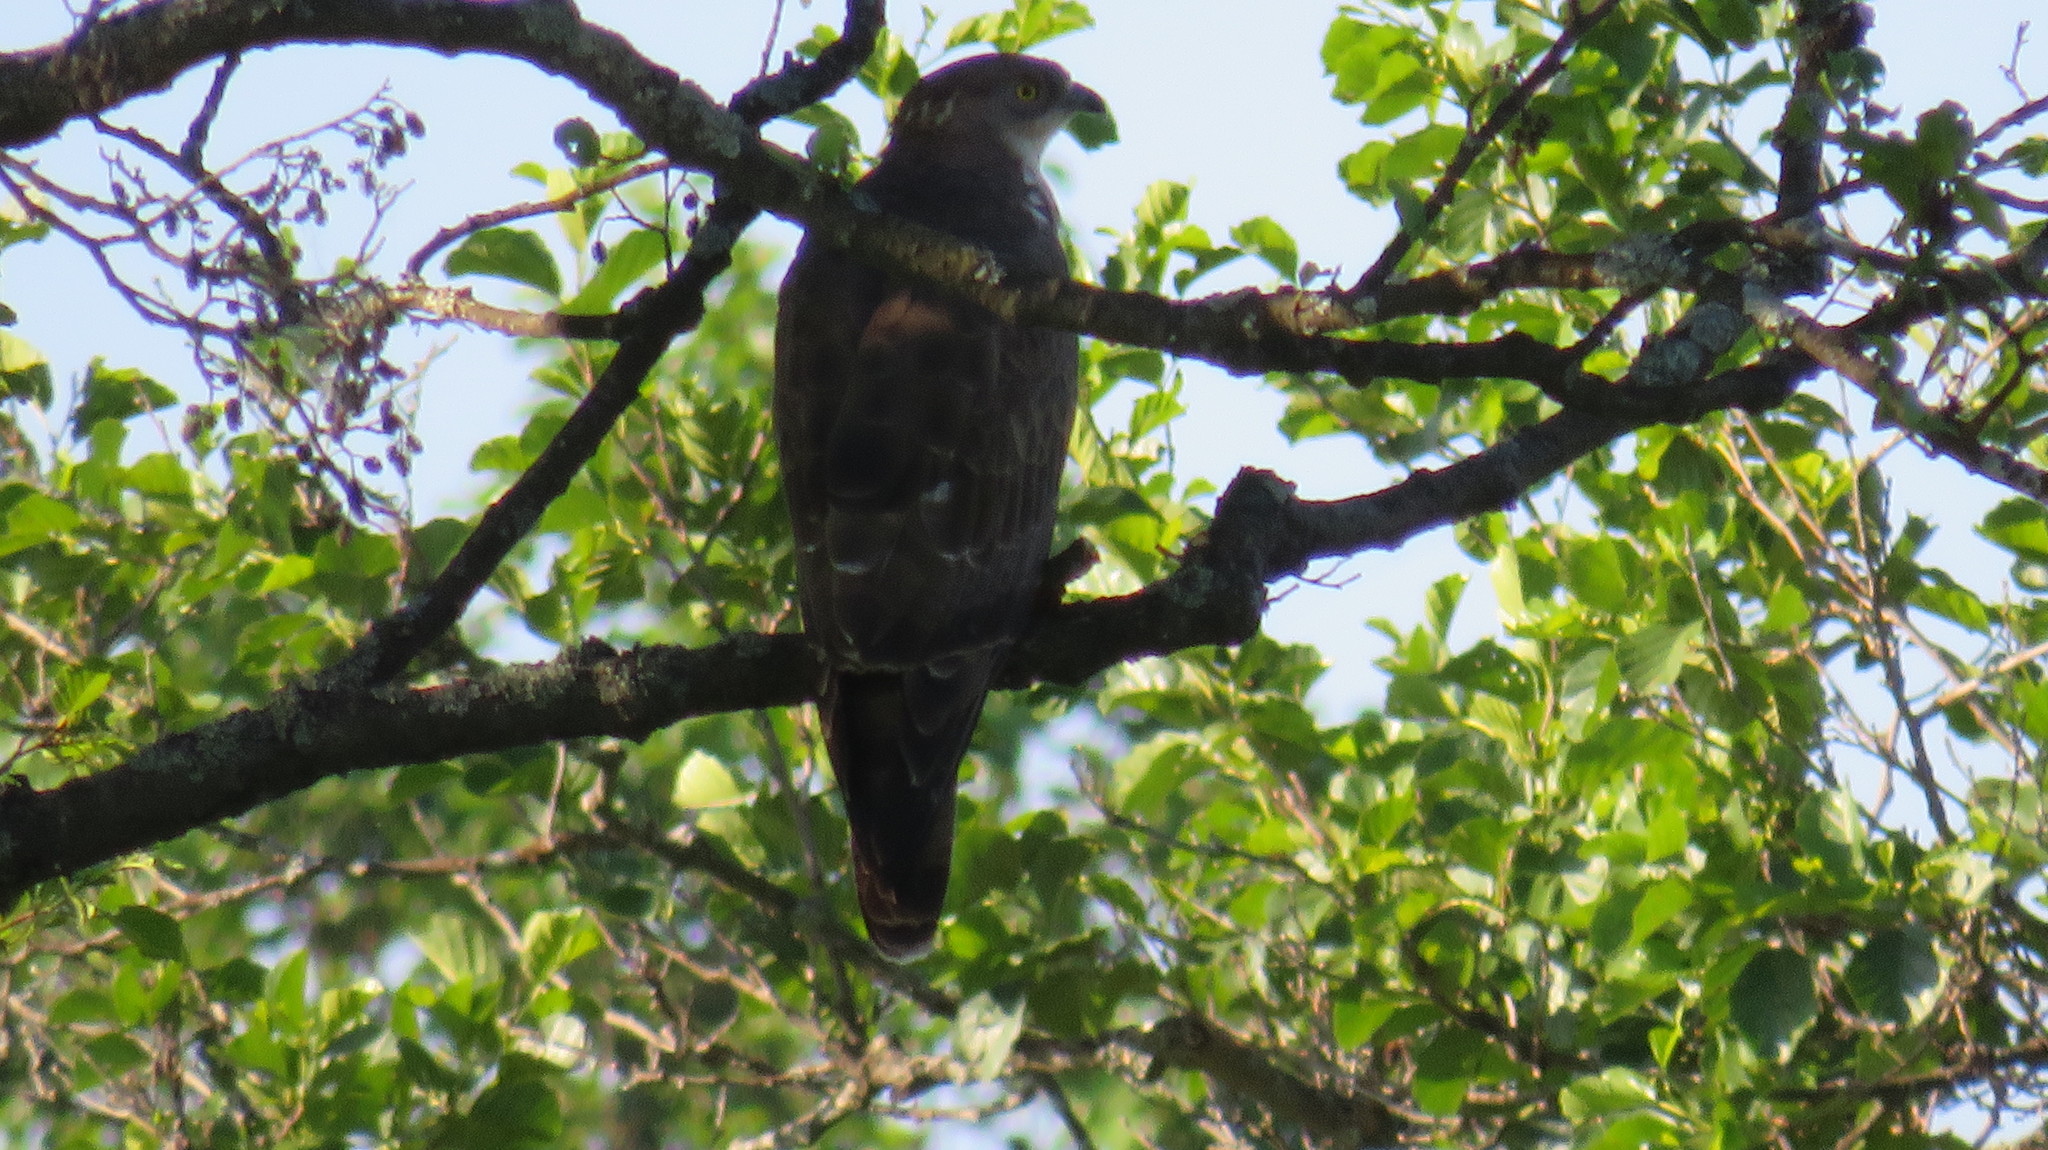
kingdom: Animalia
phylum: Chordata
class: Aves
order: Accipitriformes
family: Accipitridae
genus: Pernis
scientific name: Pernis apivorus
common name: European honey buzzard
